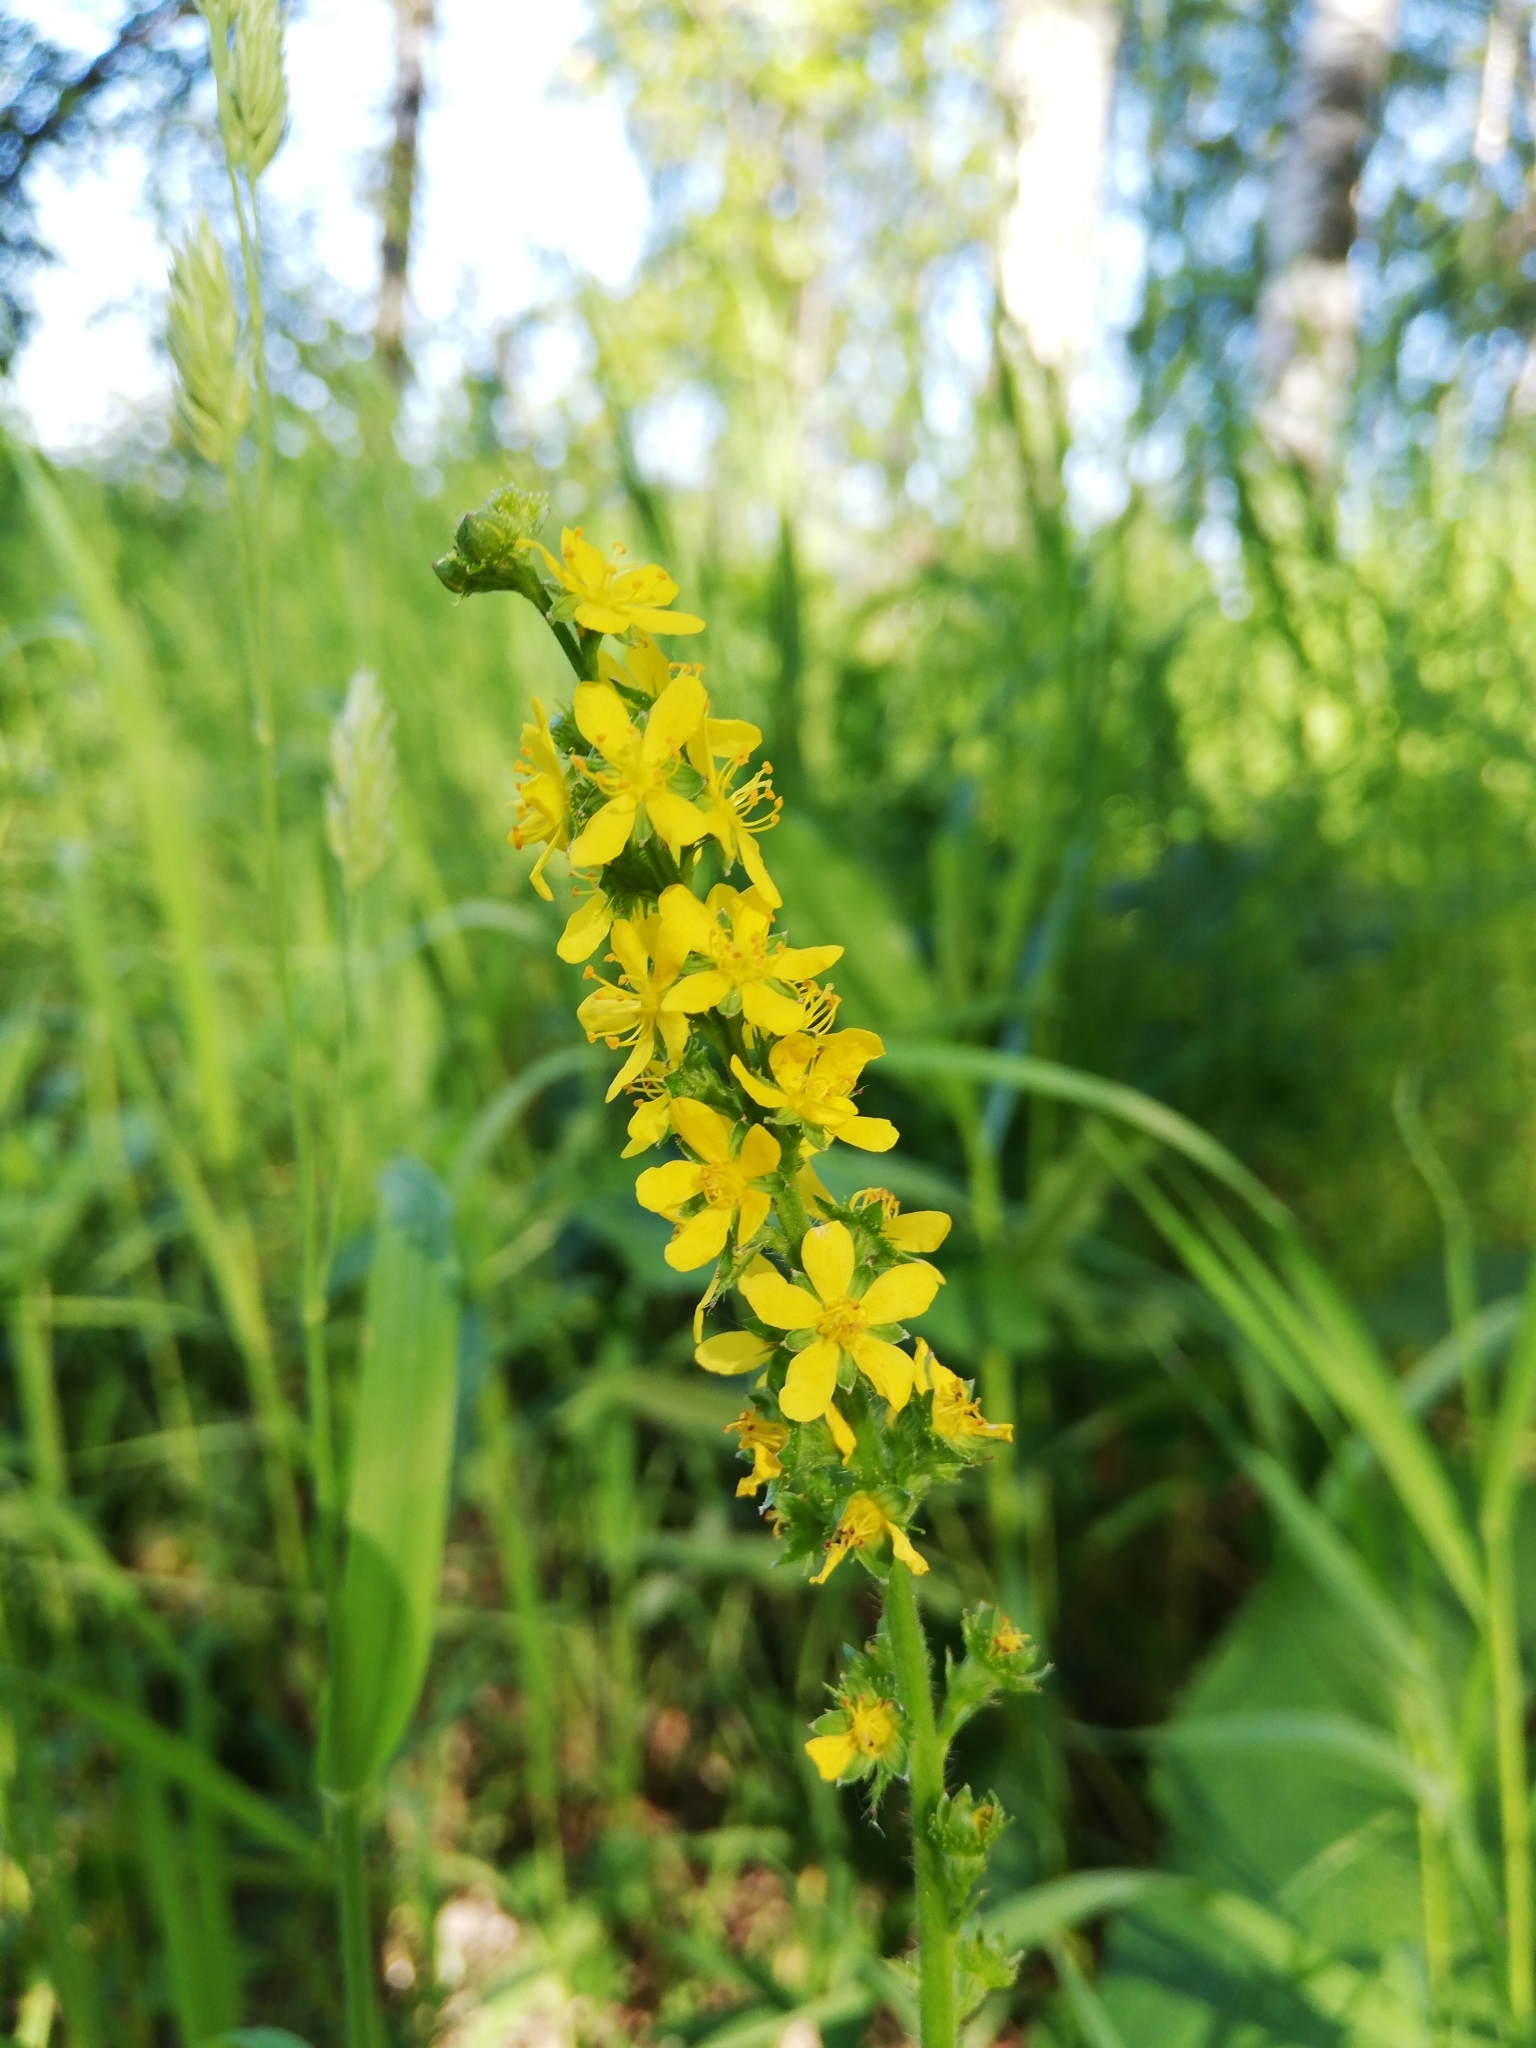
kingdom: Plantae
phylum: Tracheophyta
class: Magnoliopsida
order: Rosales
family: Rosaceae
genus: Agrimonia
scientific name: Agrimonia pilosa
